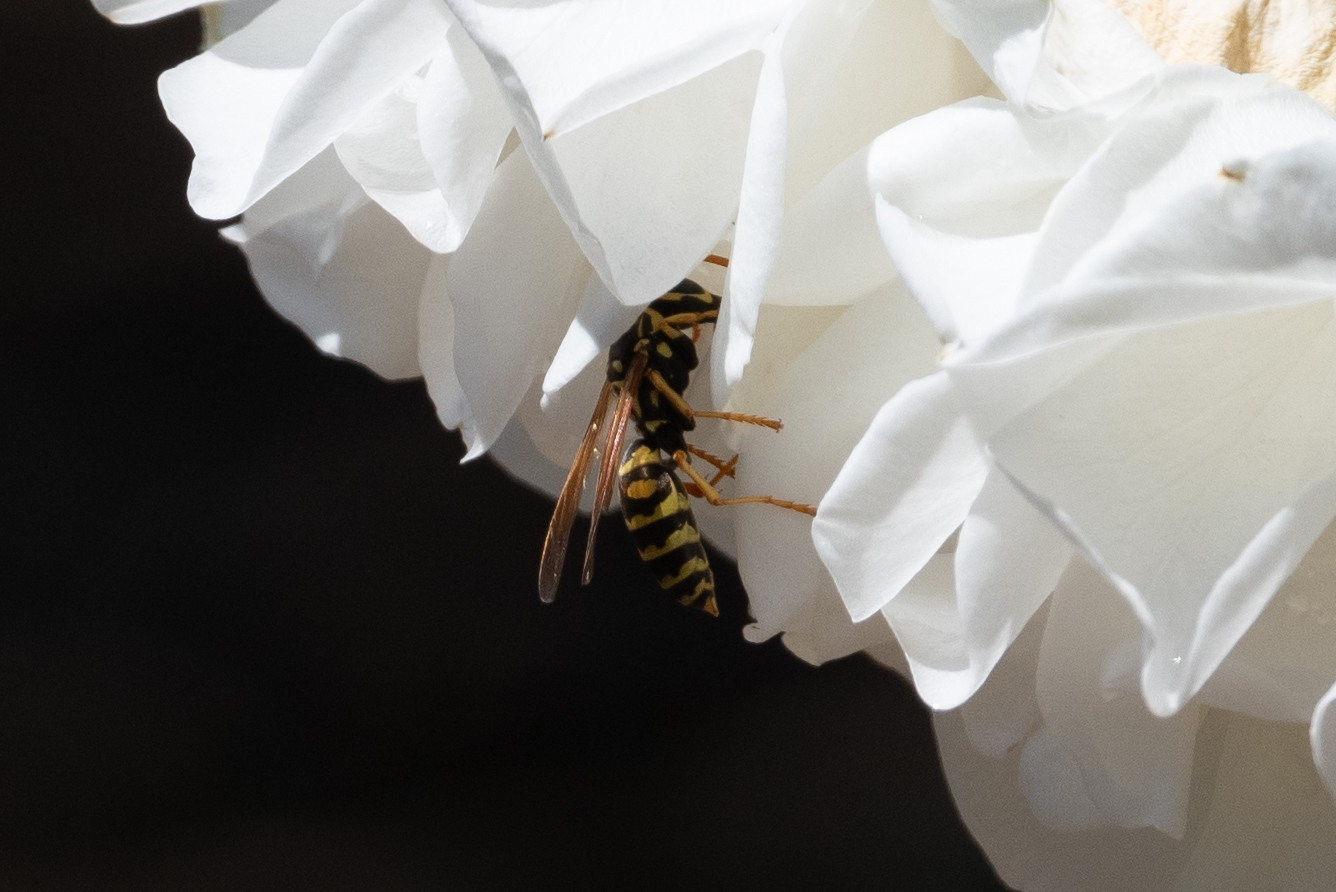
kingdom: Animalia
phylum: Arthropoda
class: Insecta
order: Hymenoptera
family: Eumenidae
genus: Polistes
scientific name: Polistes dominula
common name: Paper wasp
